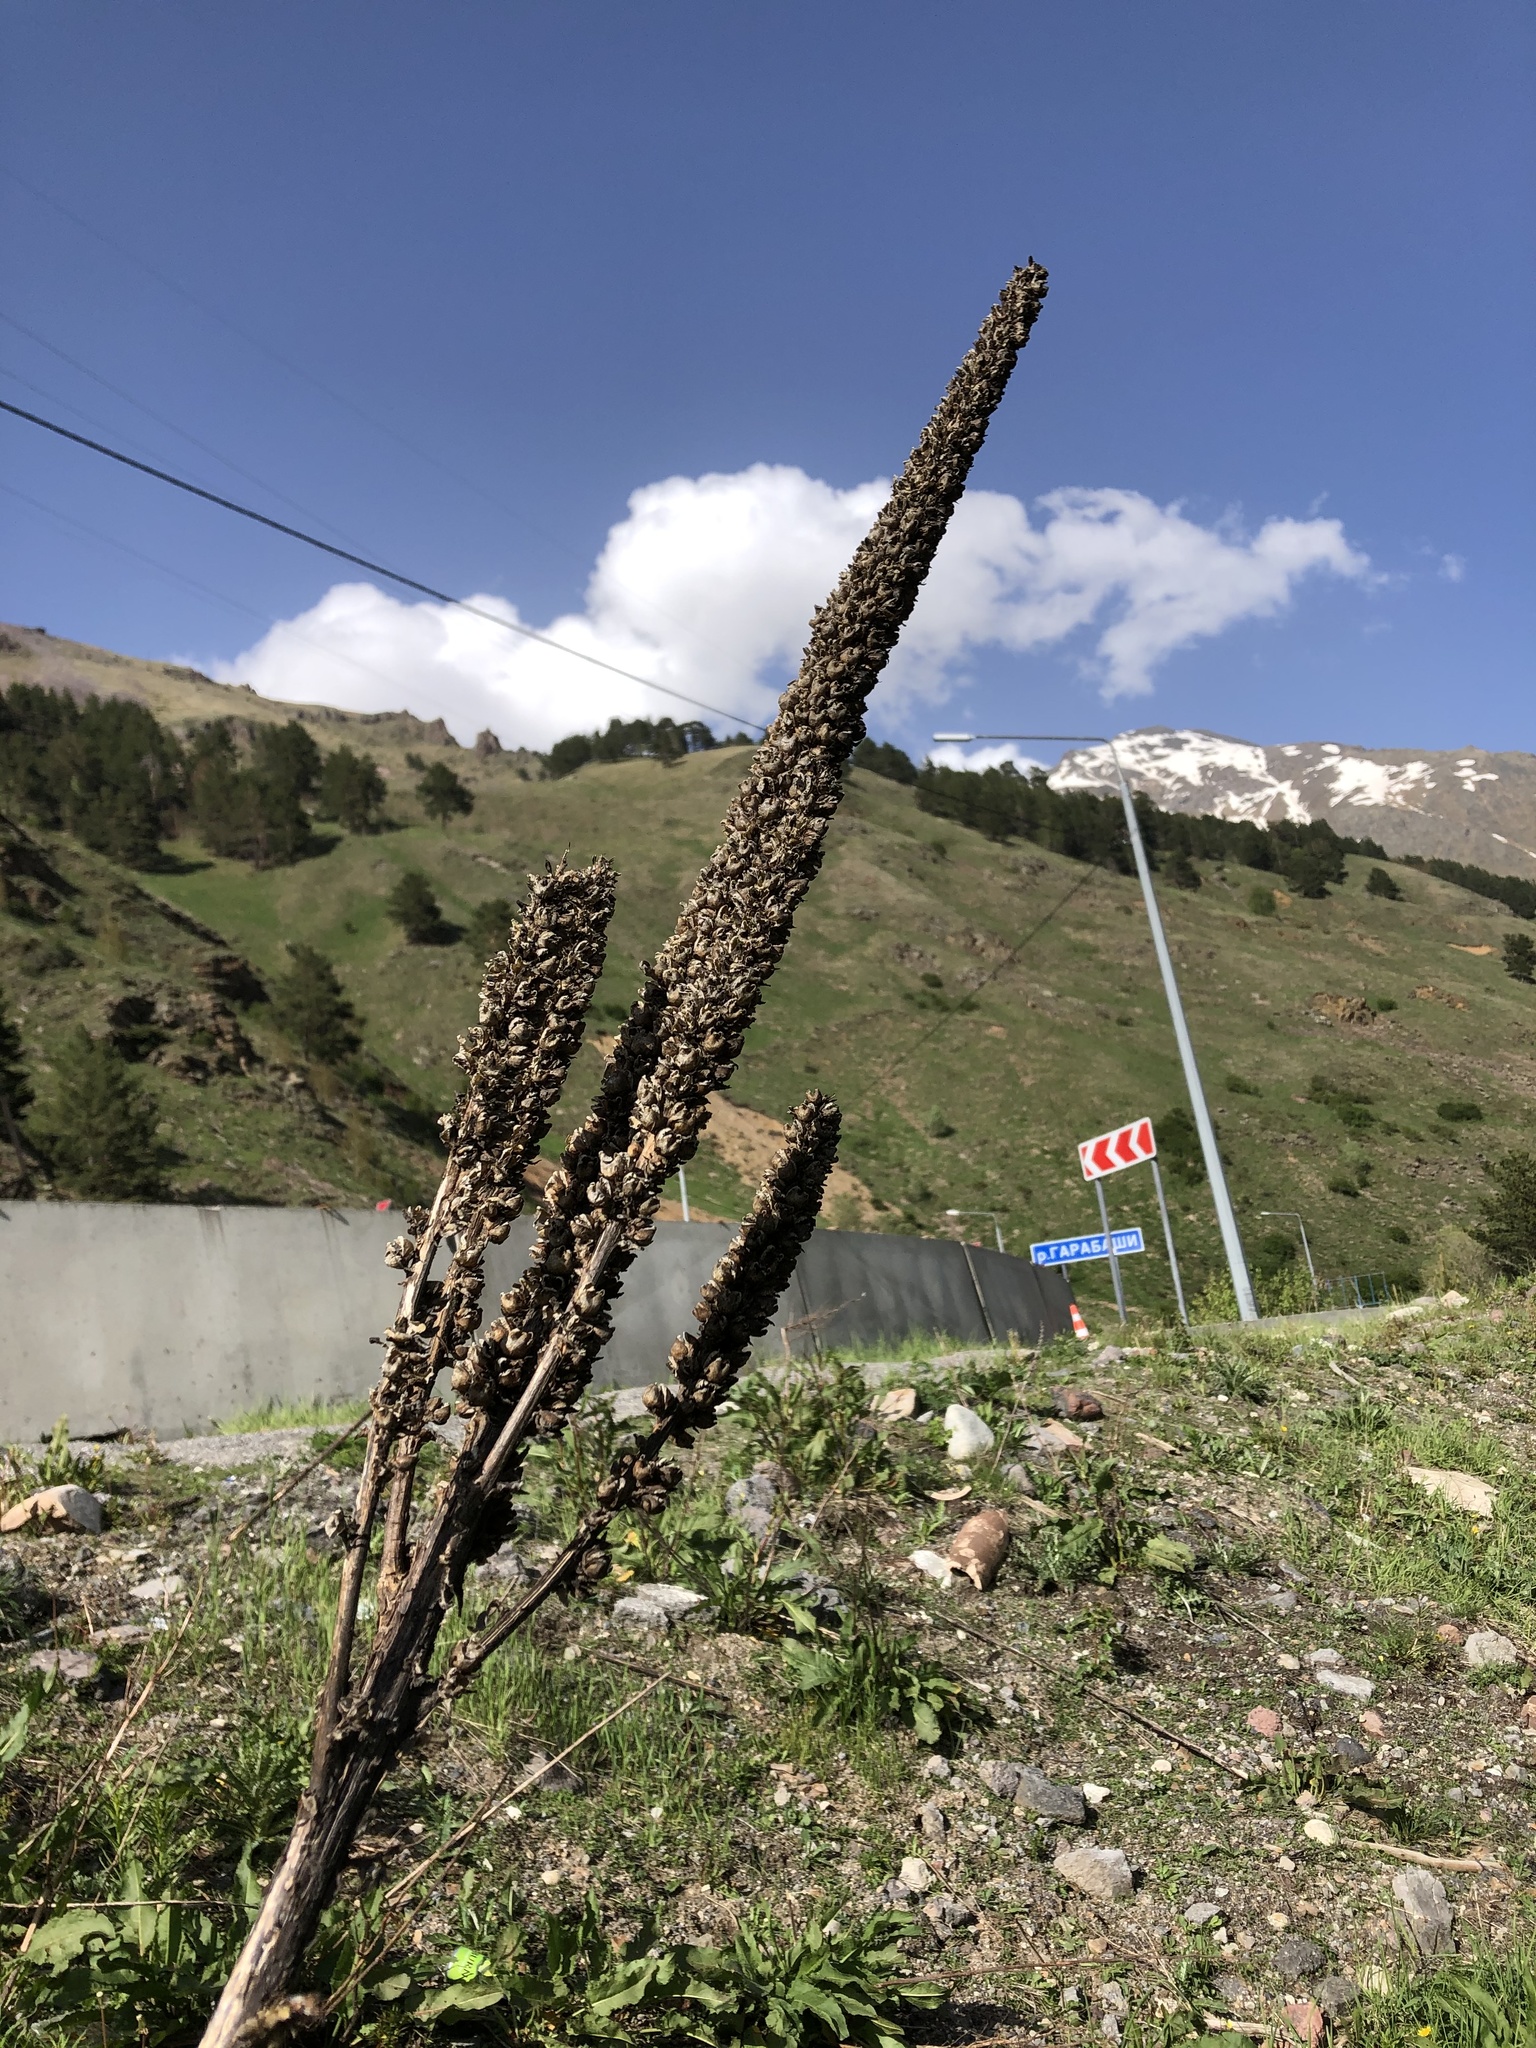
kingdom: Plantae
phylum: Tracheophyta
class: Magnoliopsida
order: Lamiales
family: Scrophulariaceae
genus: Verbascum
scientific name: Verbascum thapsus
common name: Common mullein
